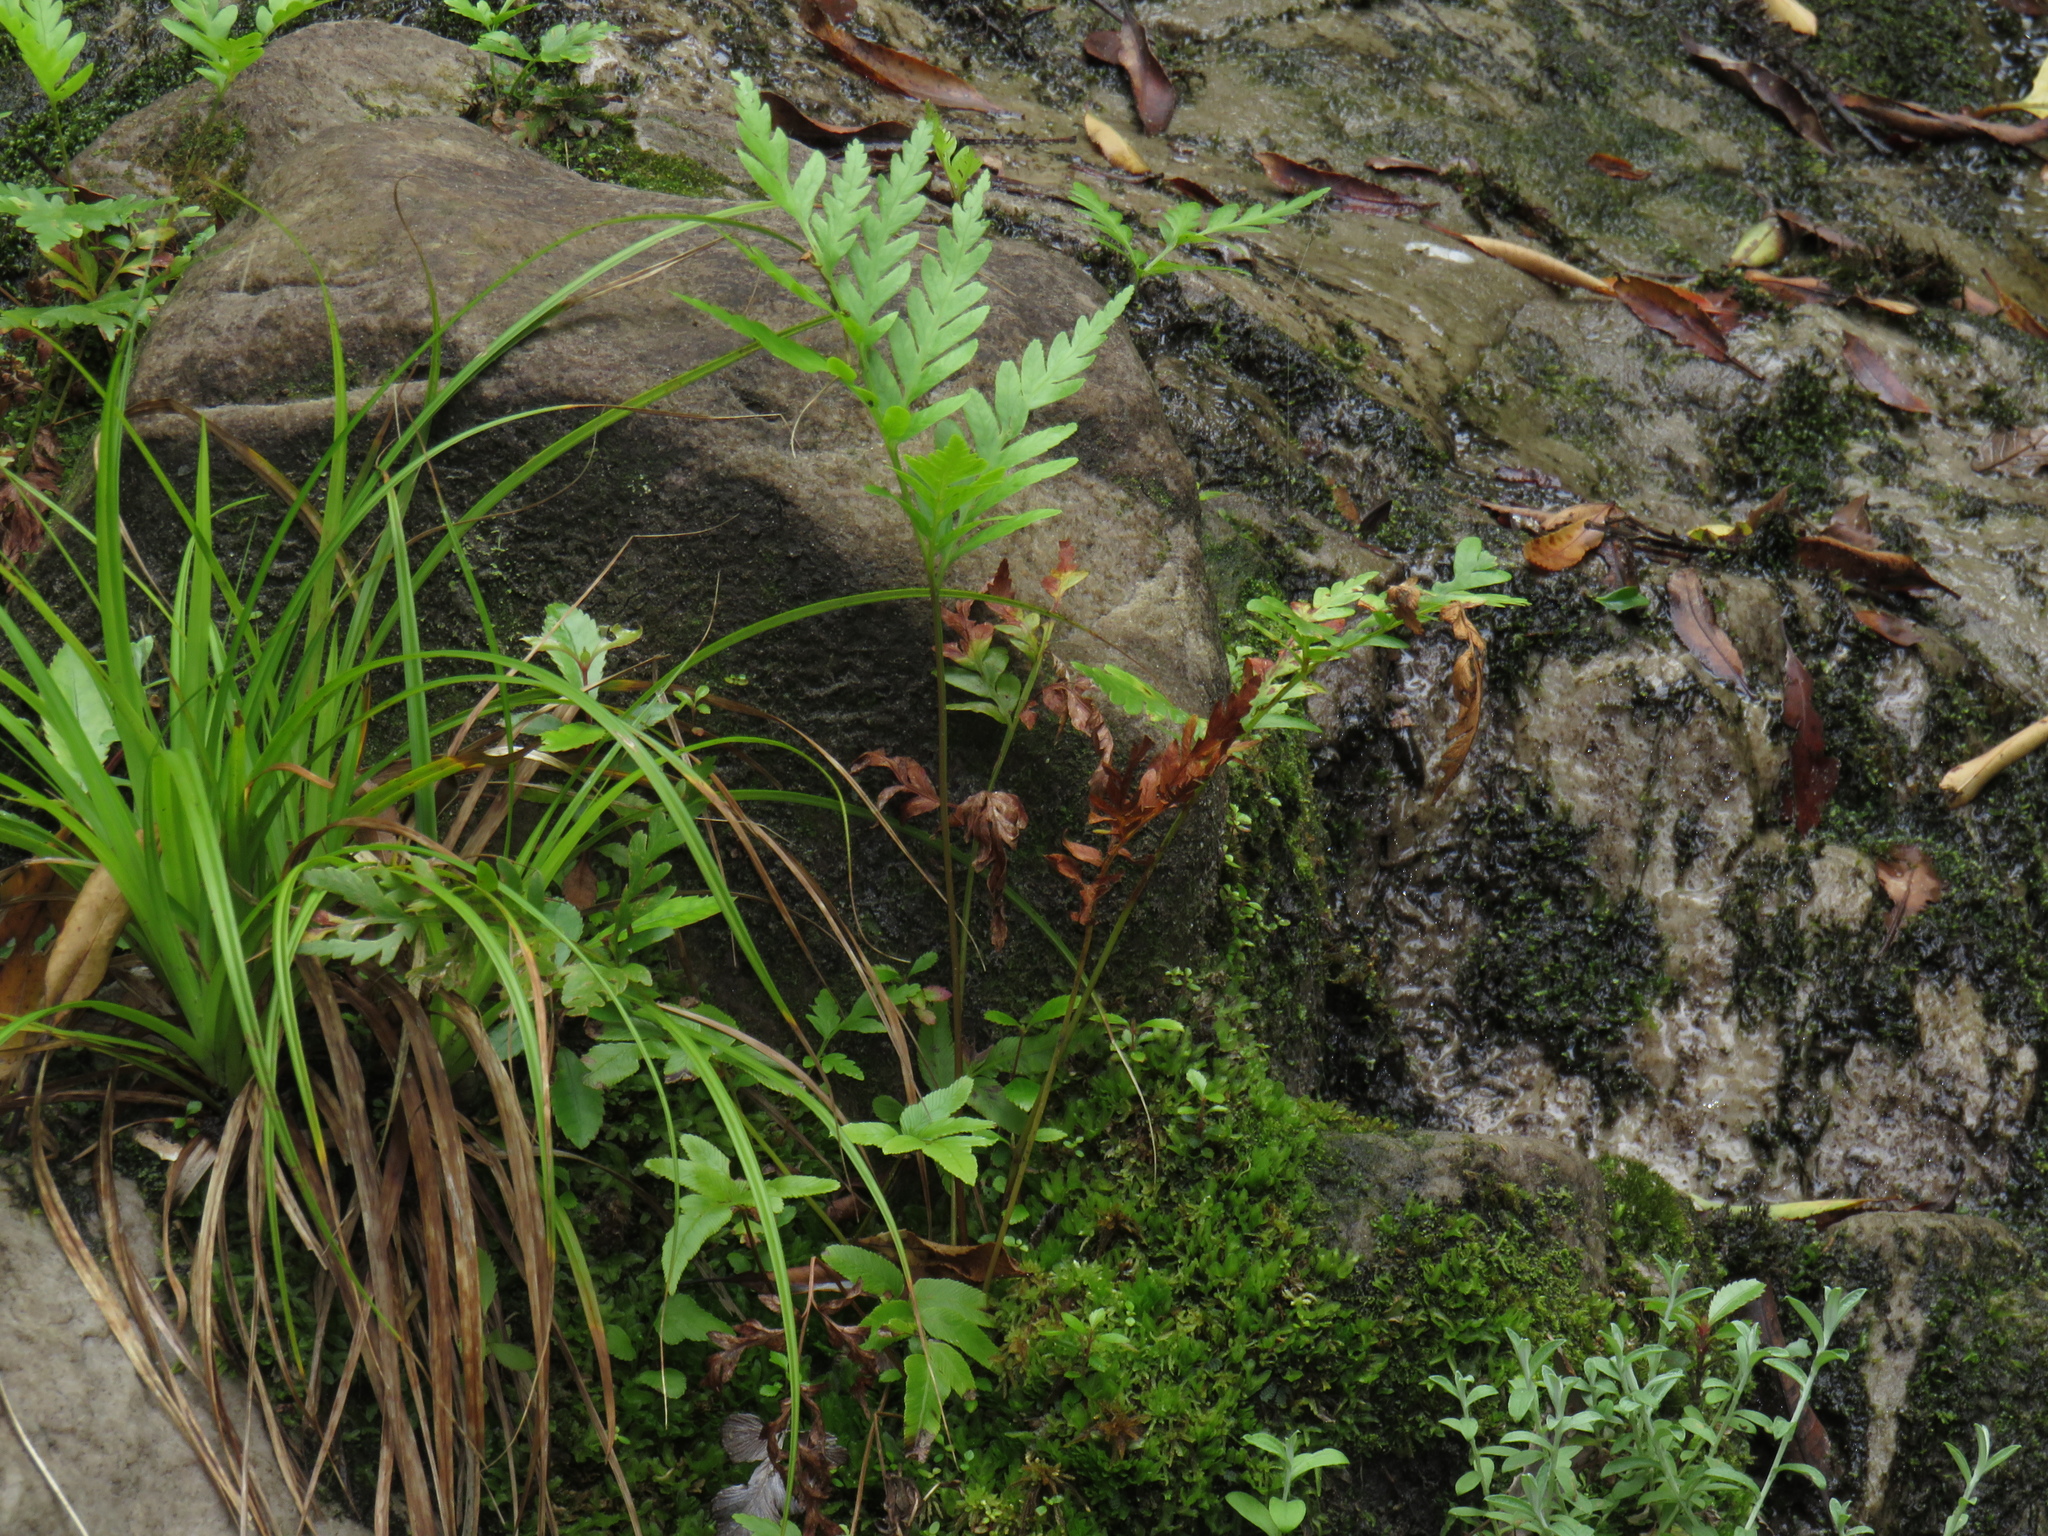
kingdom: Plantae
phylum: Tracheophyta
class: Polypodiopsida
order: Osmundales
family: Osmundaceae
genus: Todea
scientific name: Todea barbara
